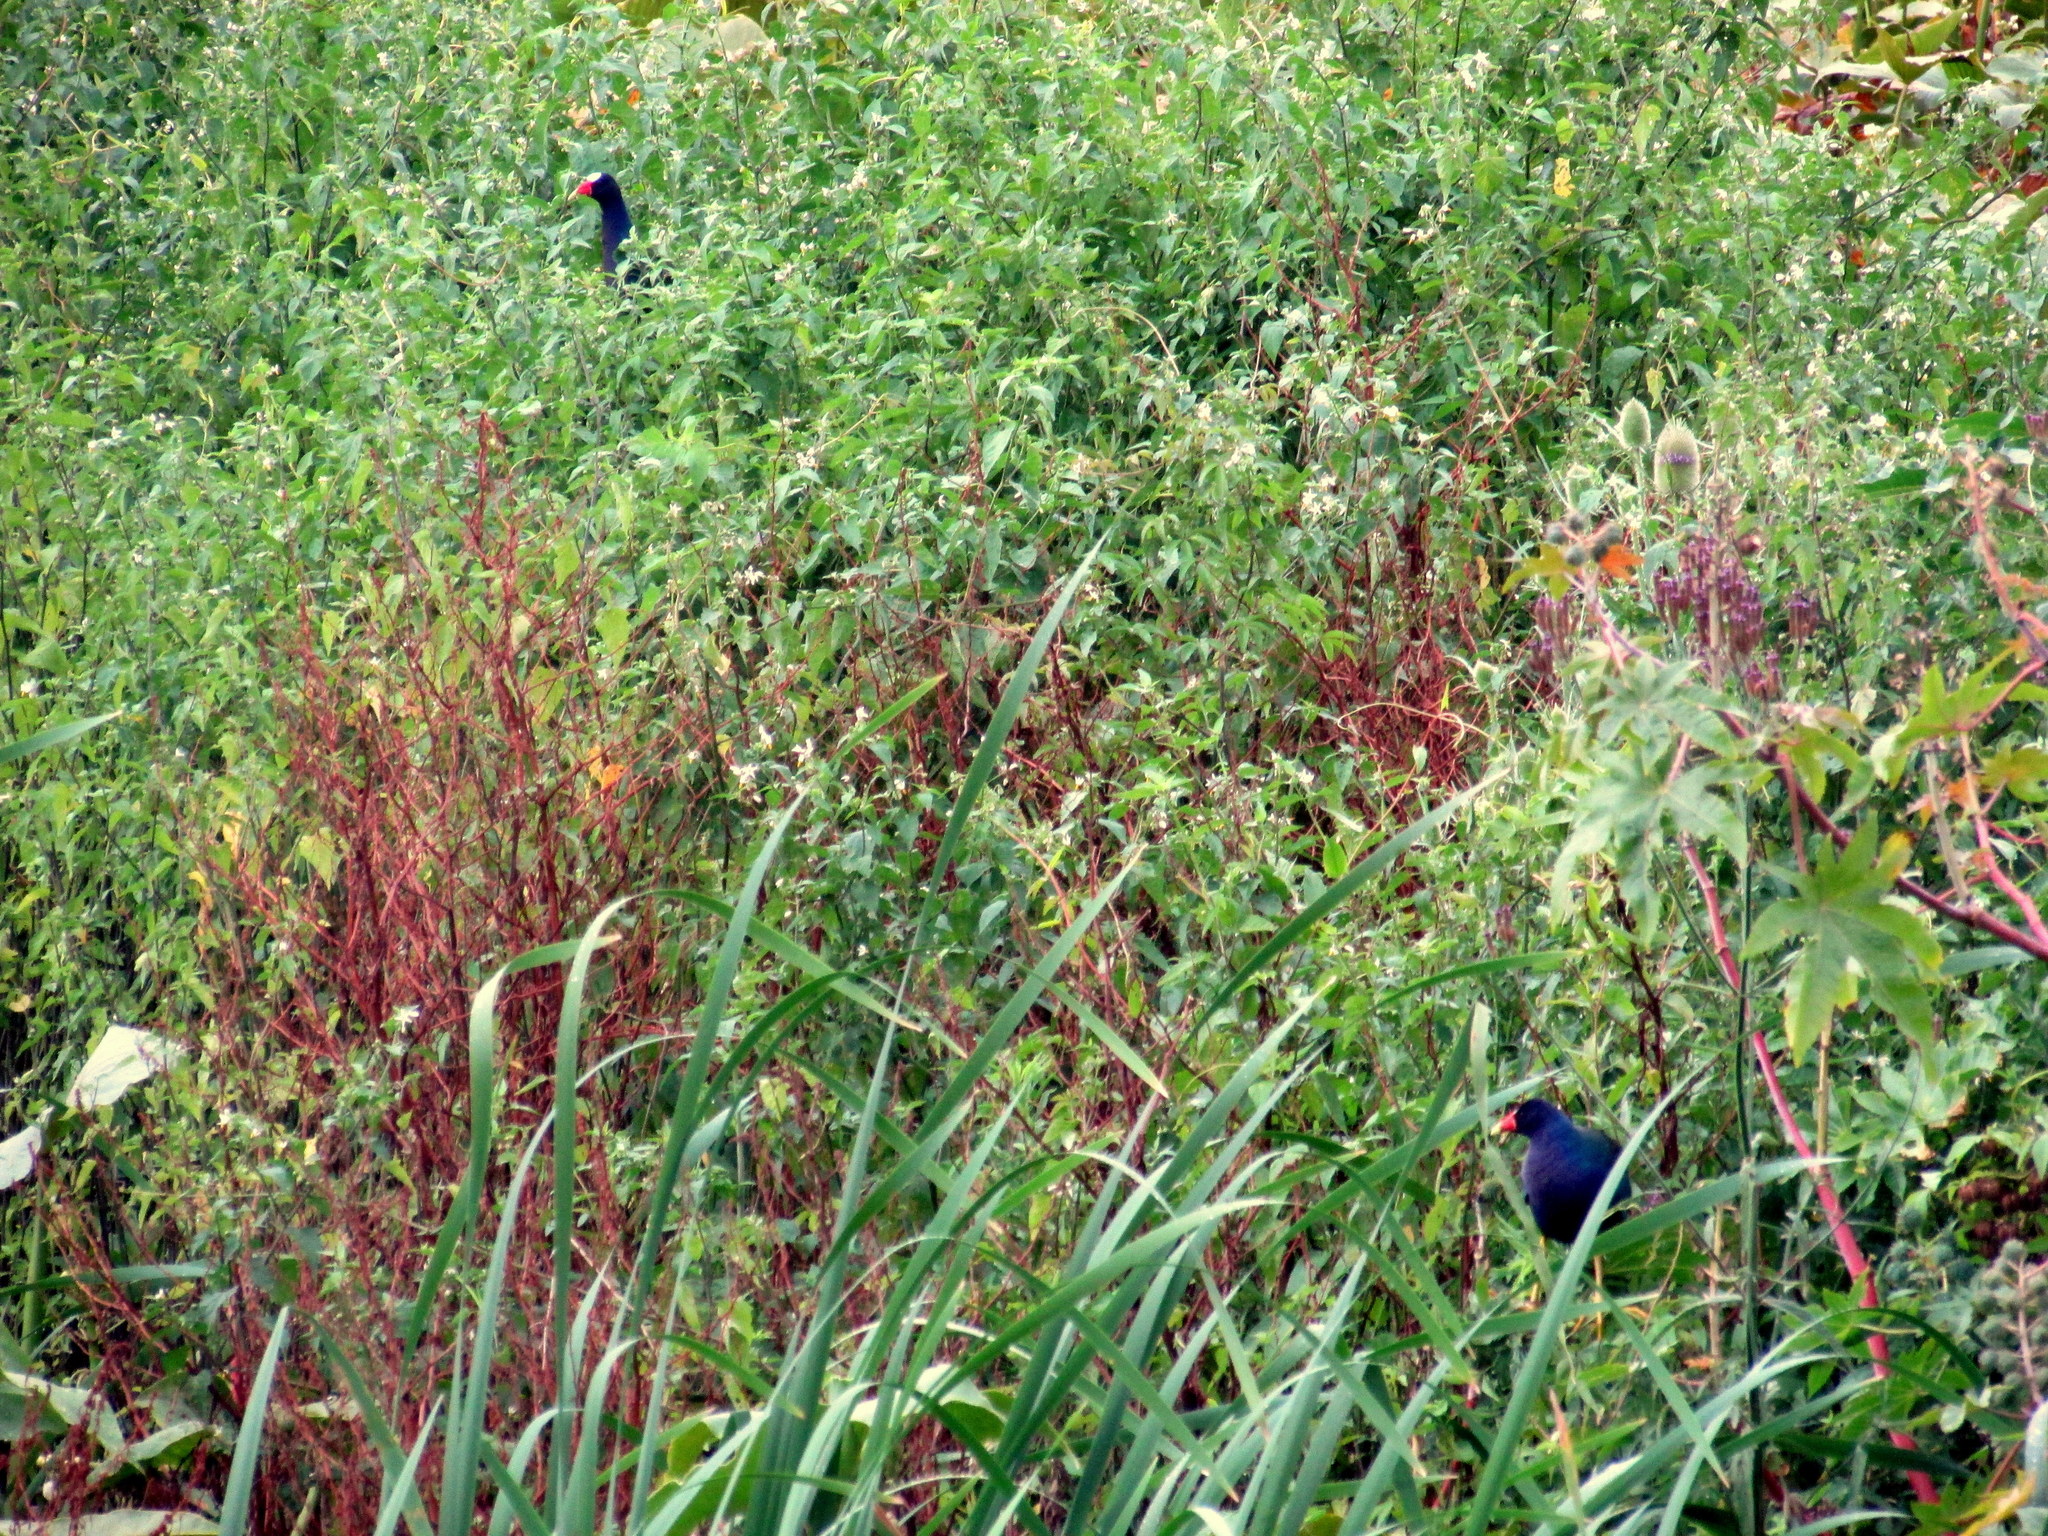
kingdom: Animalia
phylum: Chordata
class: Aves
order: Gruiformes
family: Rallidae
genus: Porphyrio
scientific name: Porphyrio martinica
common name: Purple gallinule
